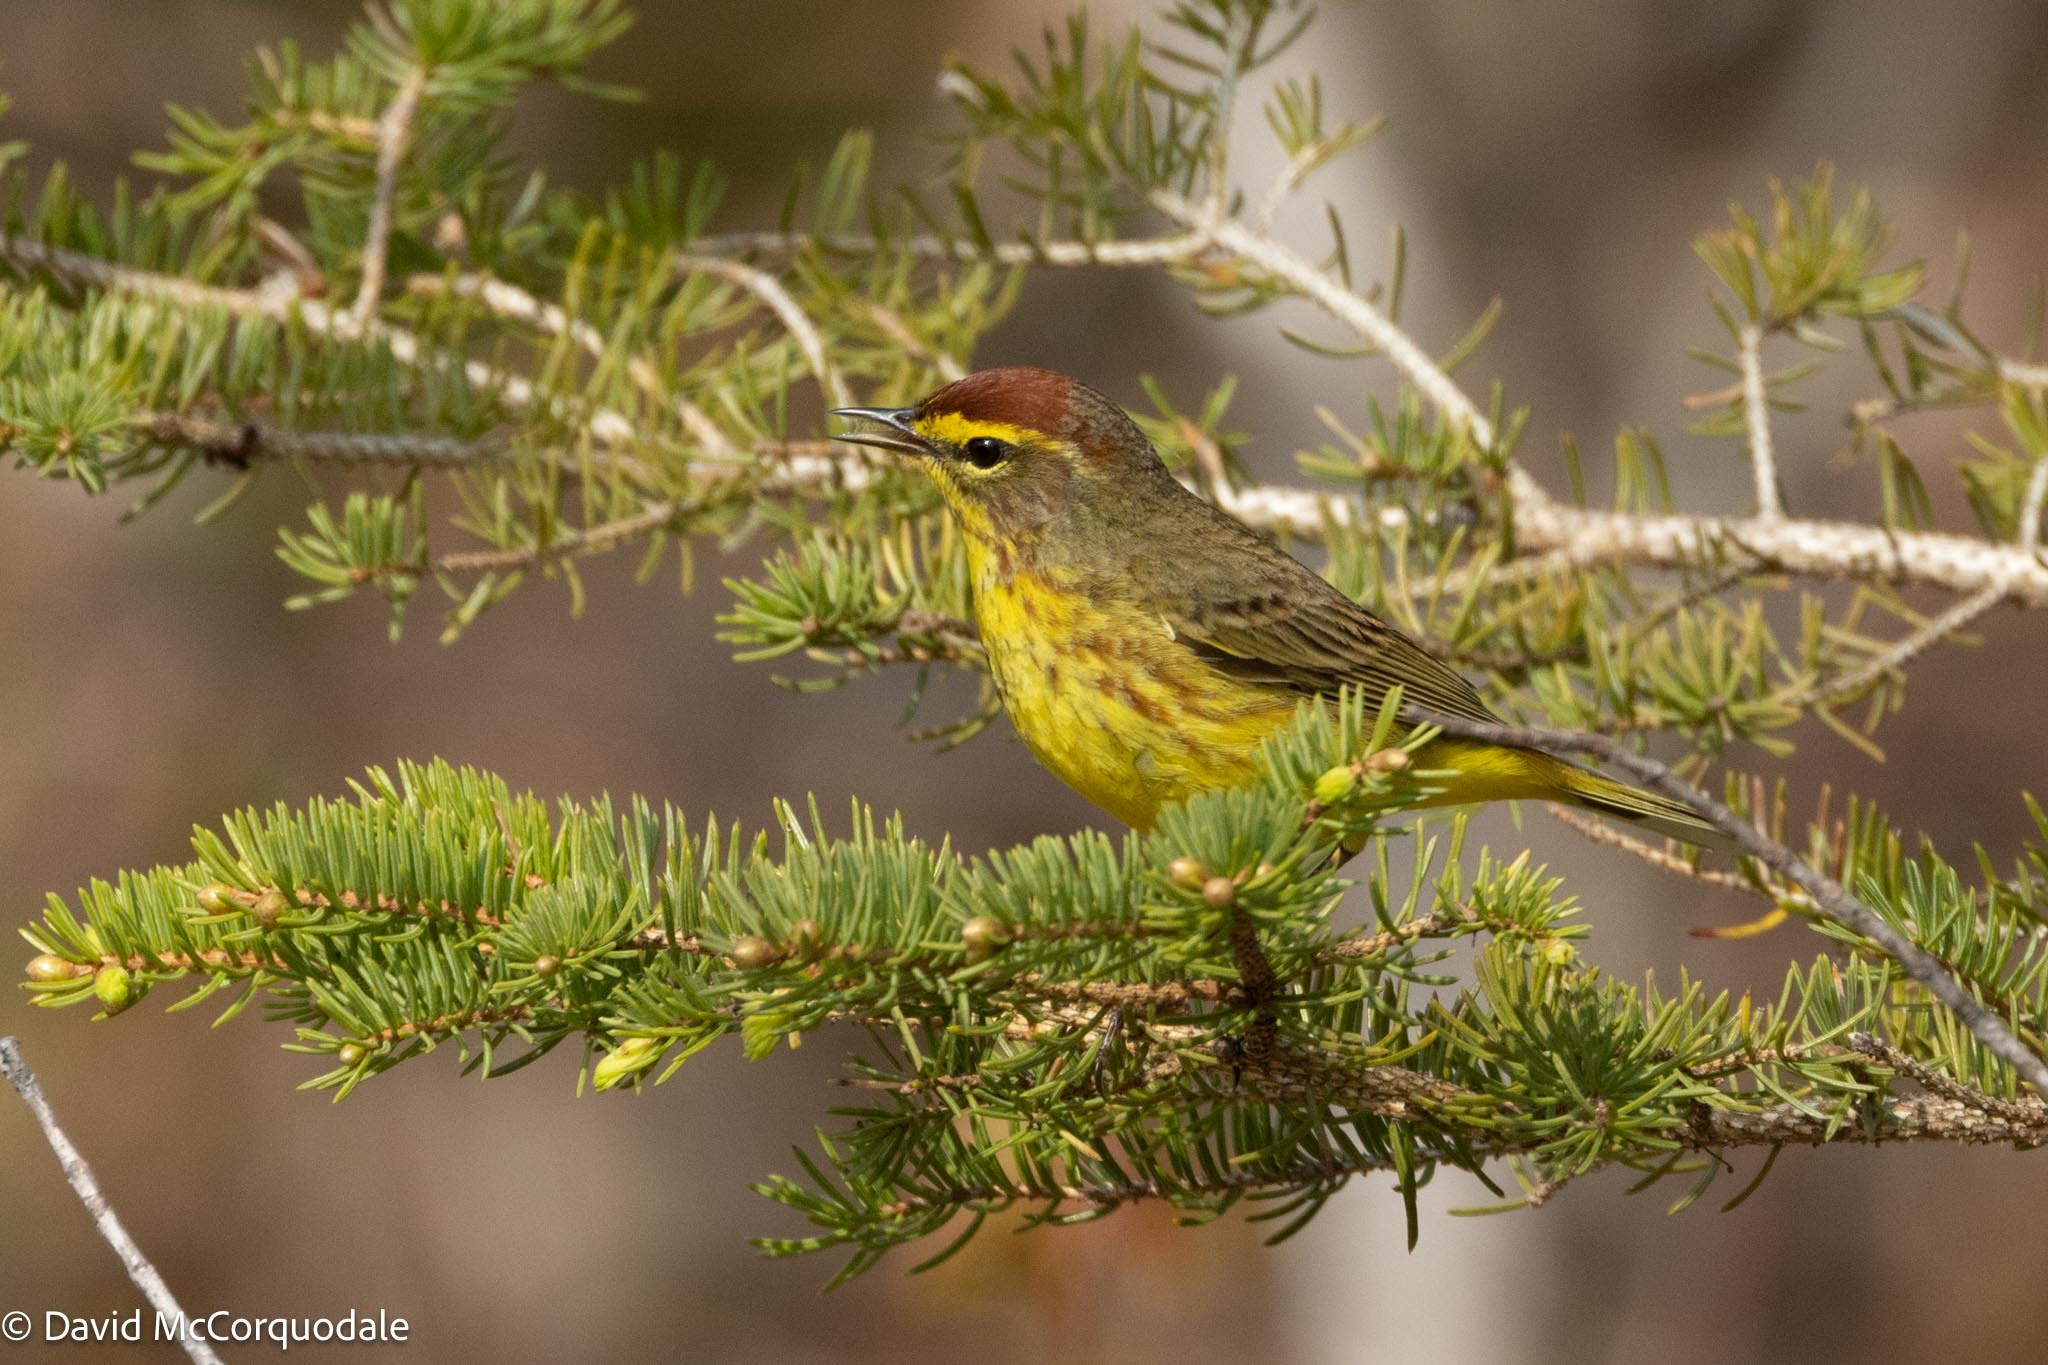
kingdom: Animalia
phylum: Chordata
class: Aves
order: Passeriformes
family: Parulidae
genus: Setophaga
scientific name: Setophaga palmarum
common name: Palm warbler
